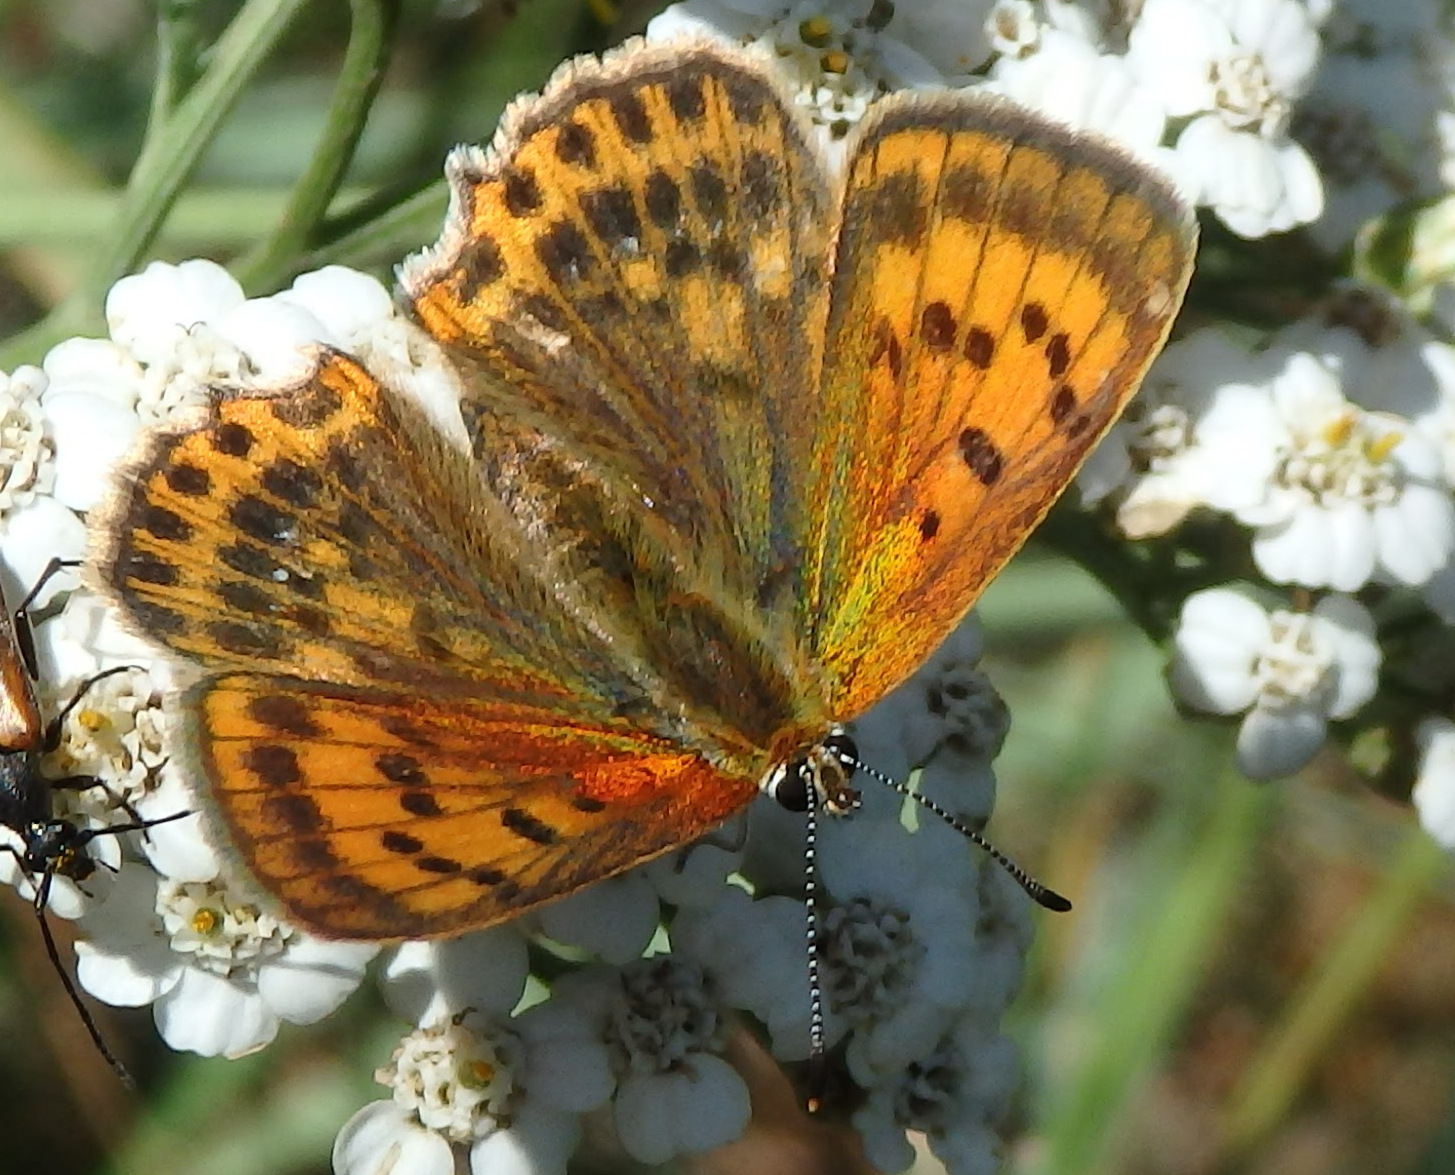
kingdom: Animalia
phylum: Arthropoda
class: Insecta
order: Lepidoptera
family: Lycaenidae
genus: Lycaena
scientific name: Lycaena virgaureae
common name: Scarce copper
